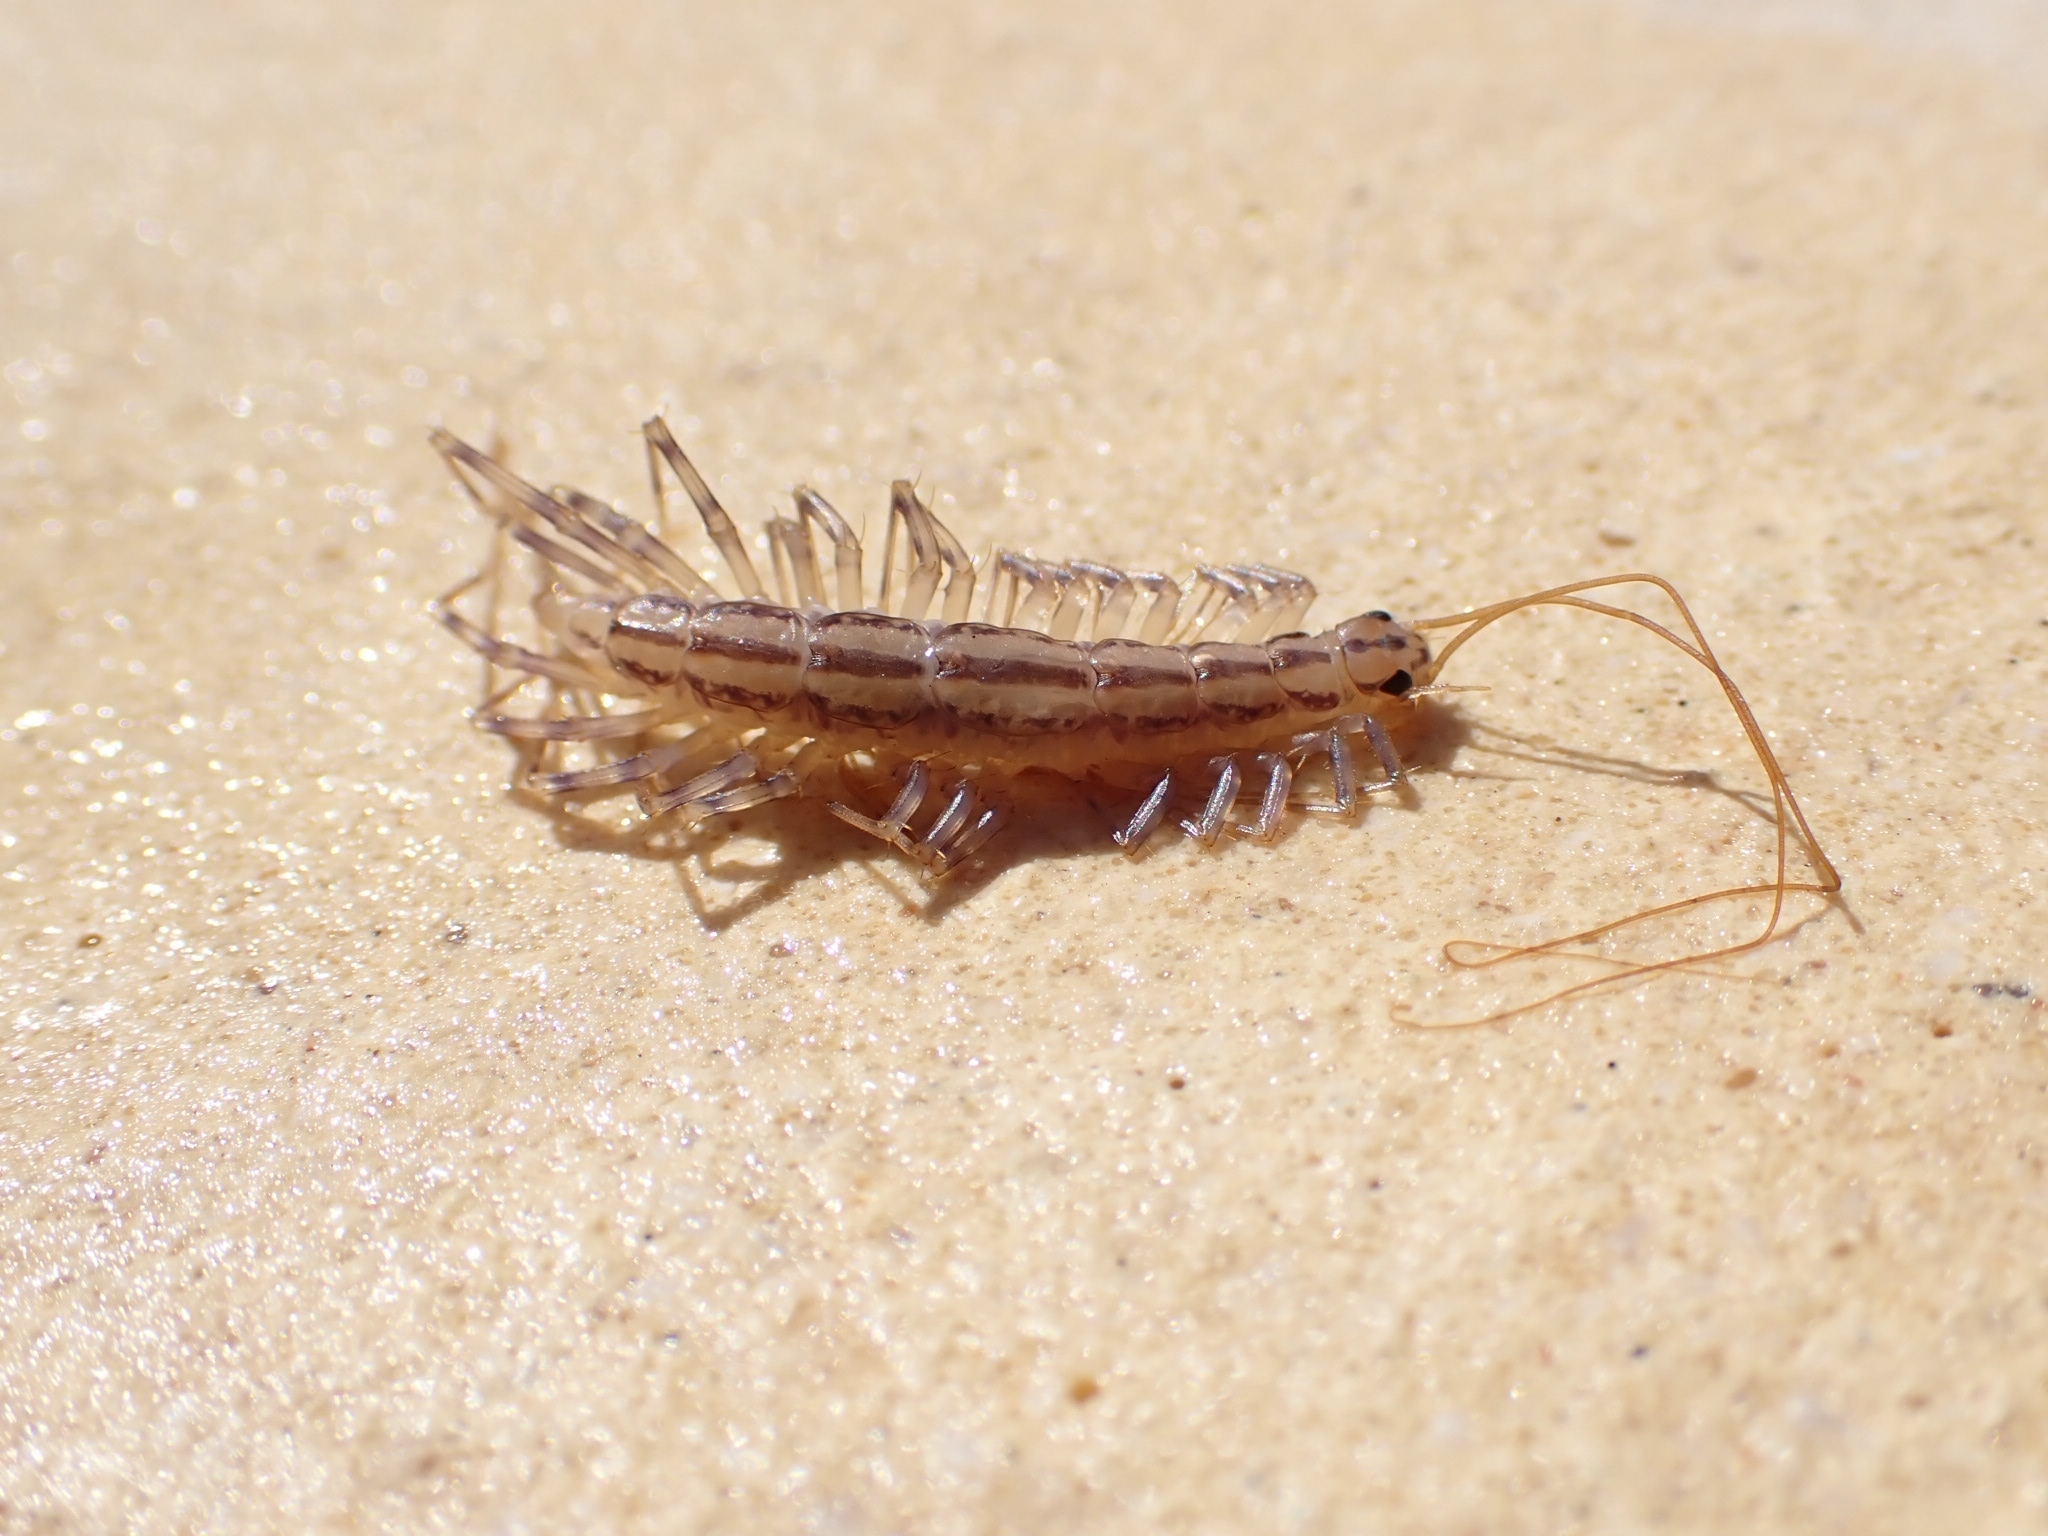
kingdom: Animalia
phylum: Arthropoda
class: Chilopoda
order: Scutigeromorpha
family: Scutigeridae
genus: Scutigera
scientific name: Scutigera coleoptrata
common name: House centipede
